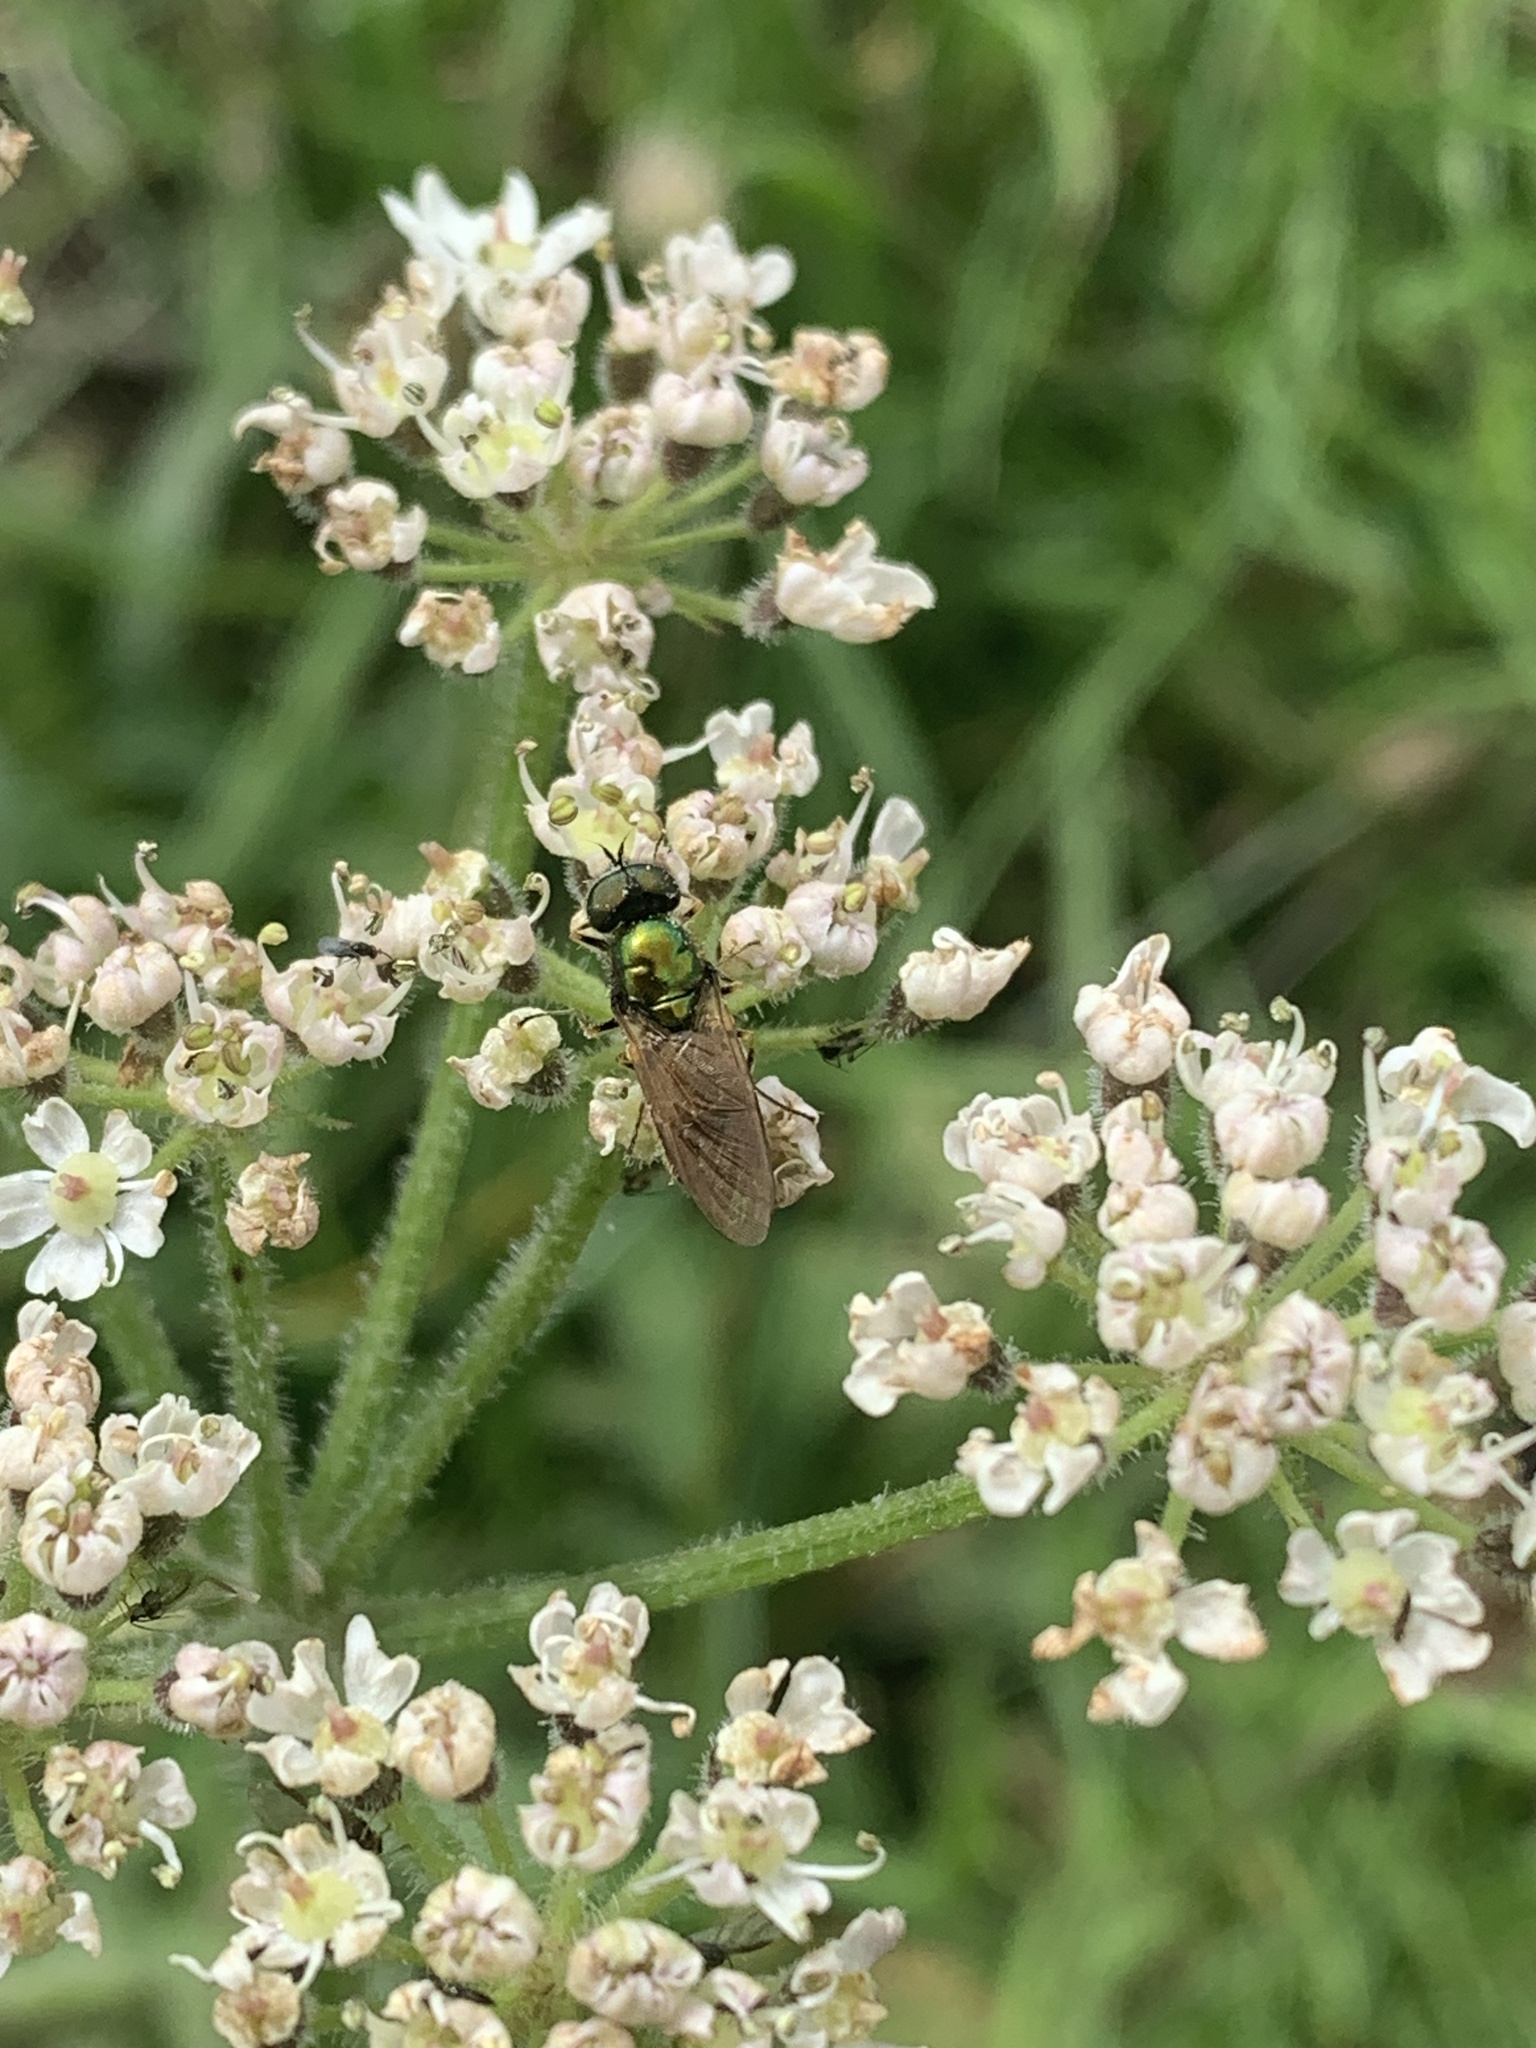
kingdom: Animalia
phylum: Arthropoda
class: Insecta
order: Diptera
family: Stratiomyidae
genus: Chloromyia
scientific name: Chloromyia formosa
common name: Soldier fly
